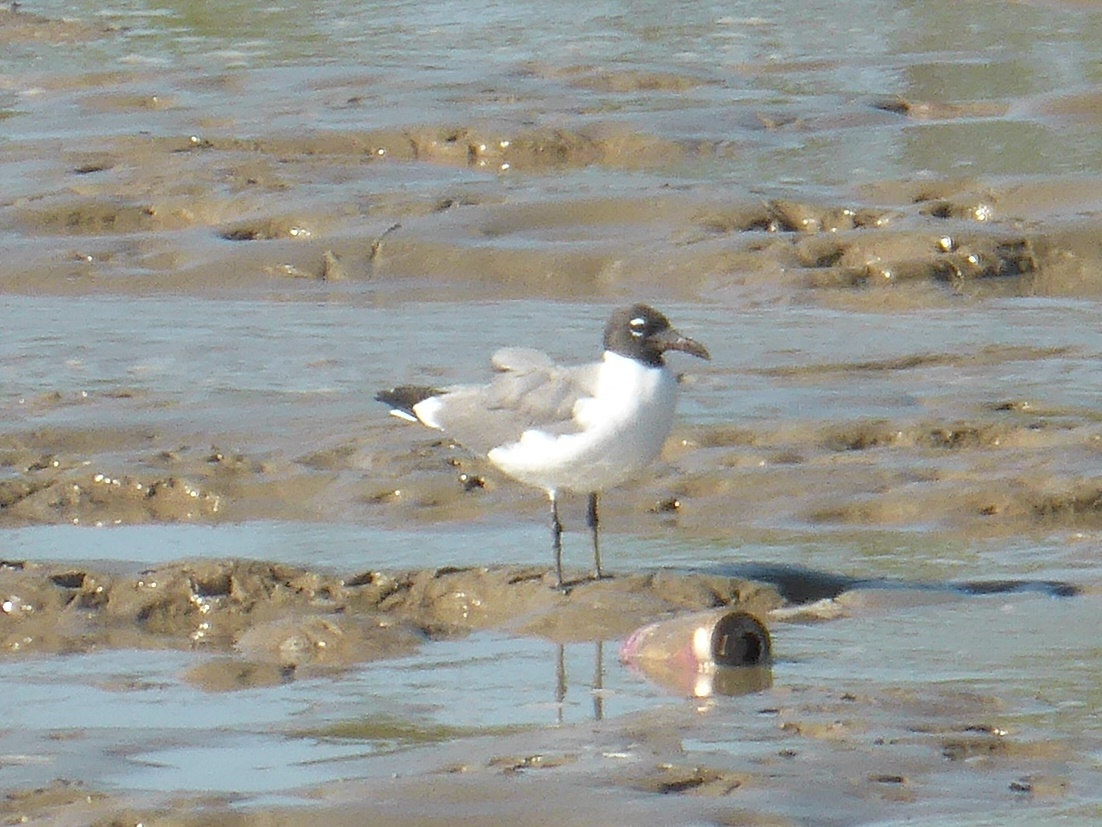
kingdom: Animalia
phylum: Chordata
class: Aves
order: Charadriiformes
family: Laridae
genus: Leucophaeus
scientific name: Leucophaeus atricilla
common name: Laughing gull
